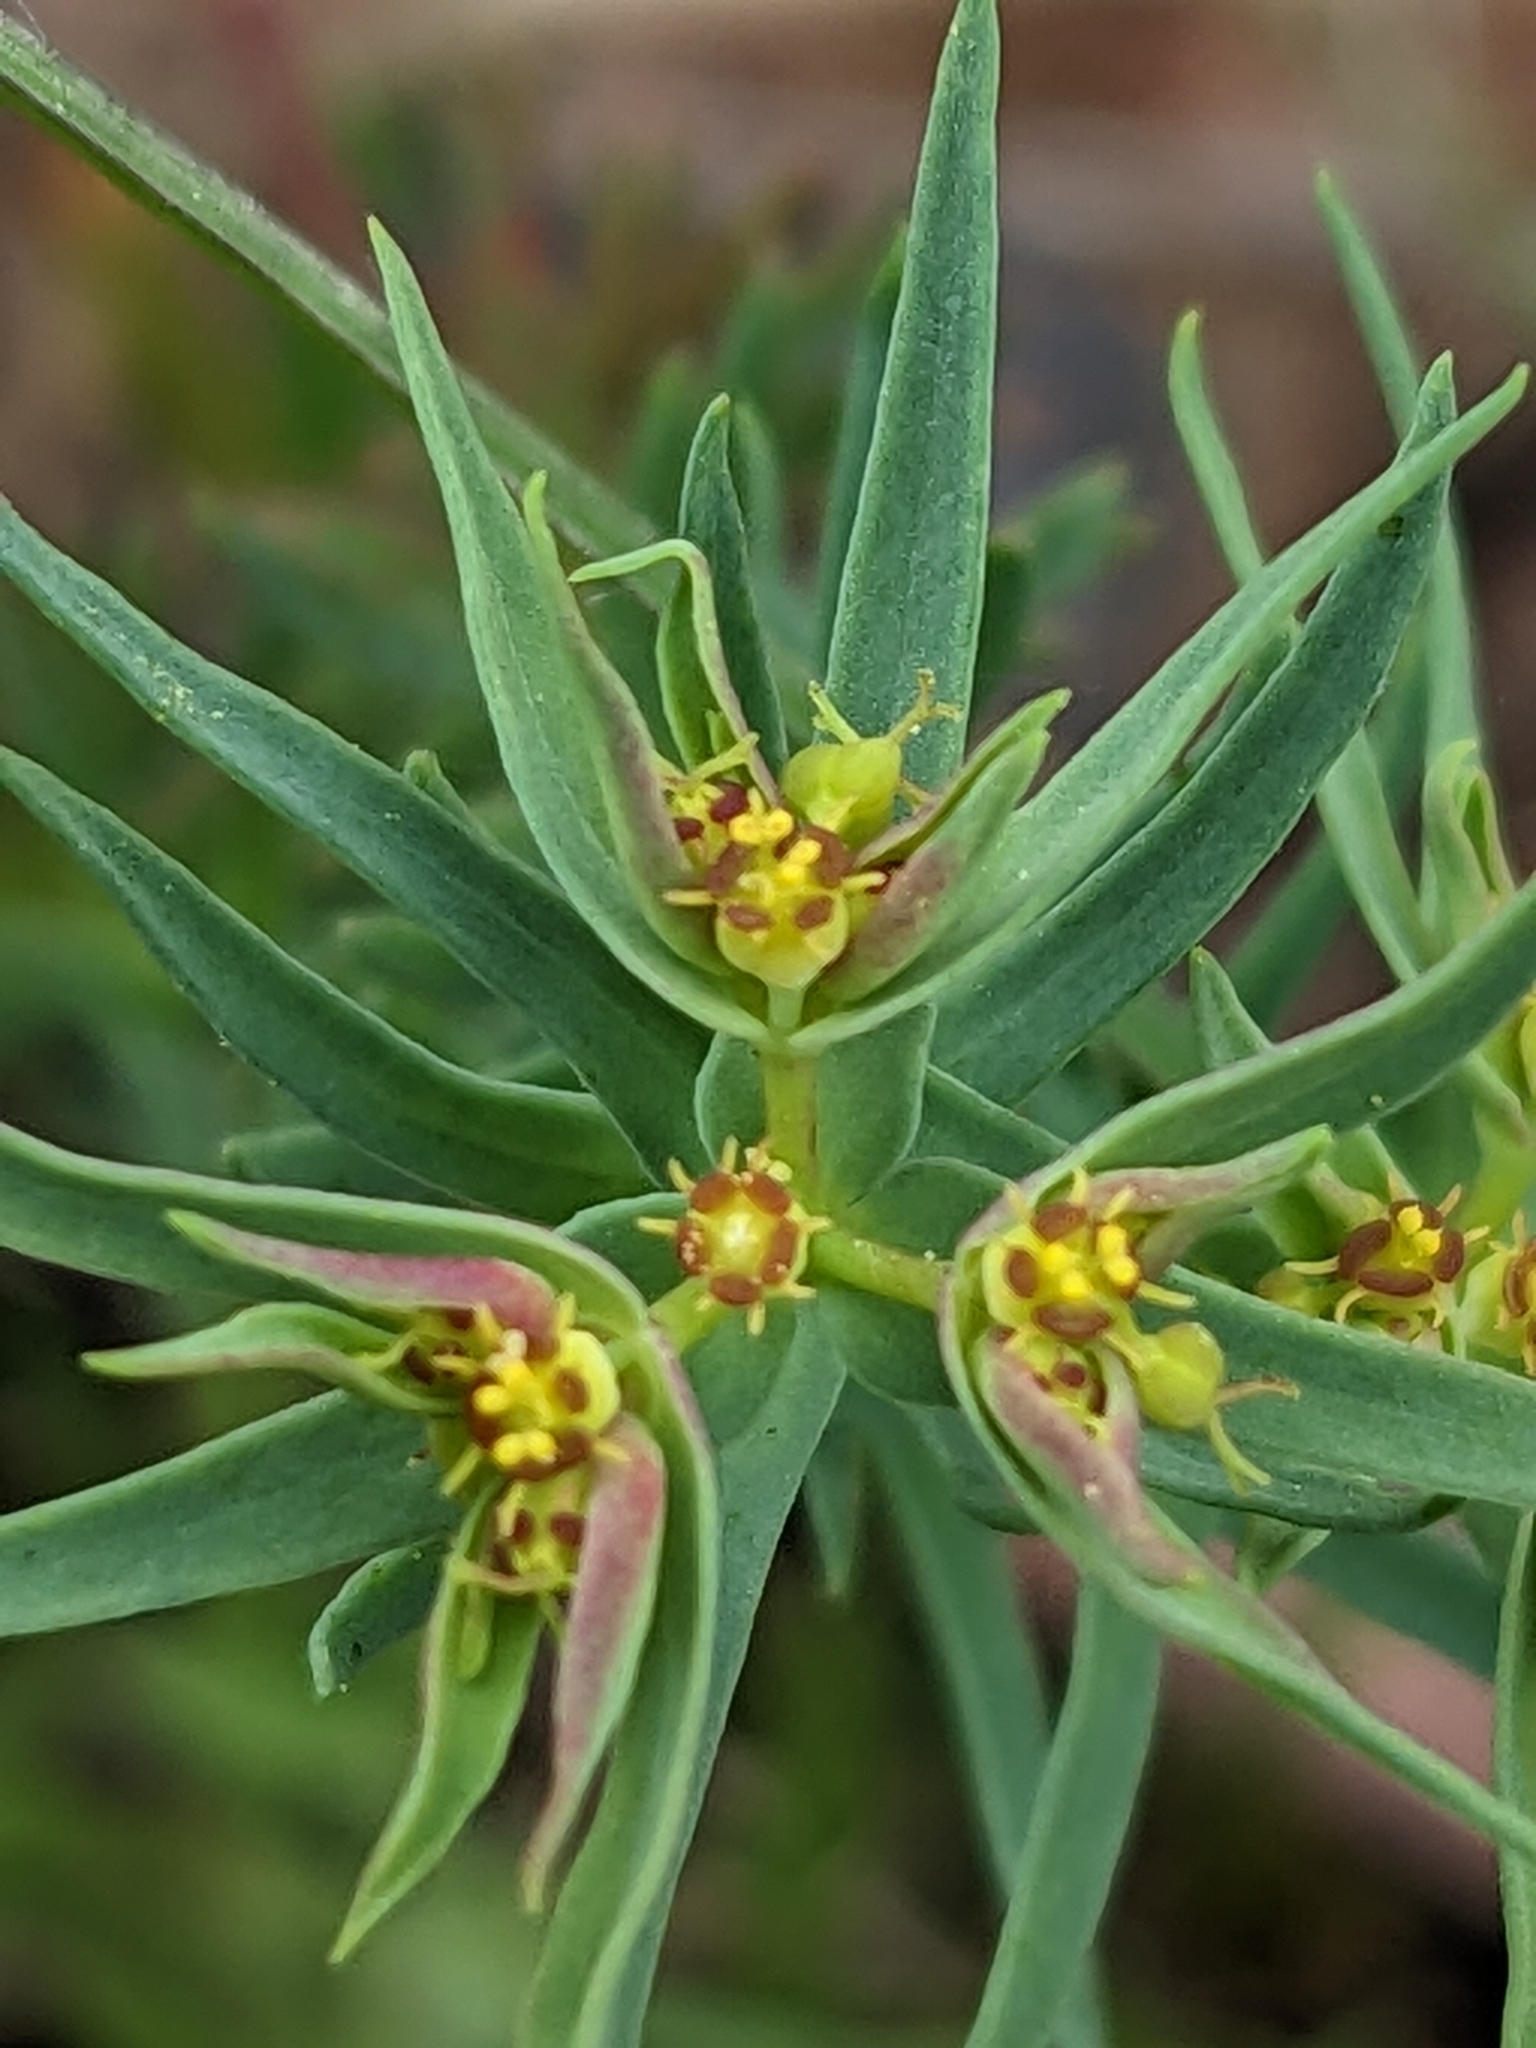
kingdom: Plantae
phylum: Tracheophyta
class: Magnoliopsida
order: Malpighiales
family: Euphorbiaceae
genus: Euphorbia
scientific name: Euphorbia exigua
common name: Dwarf spurge
